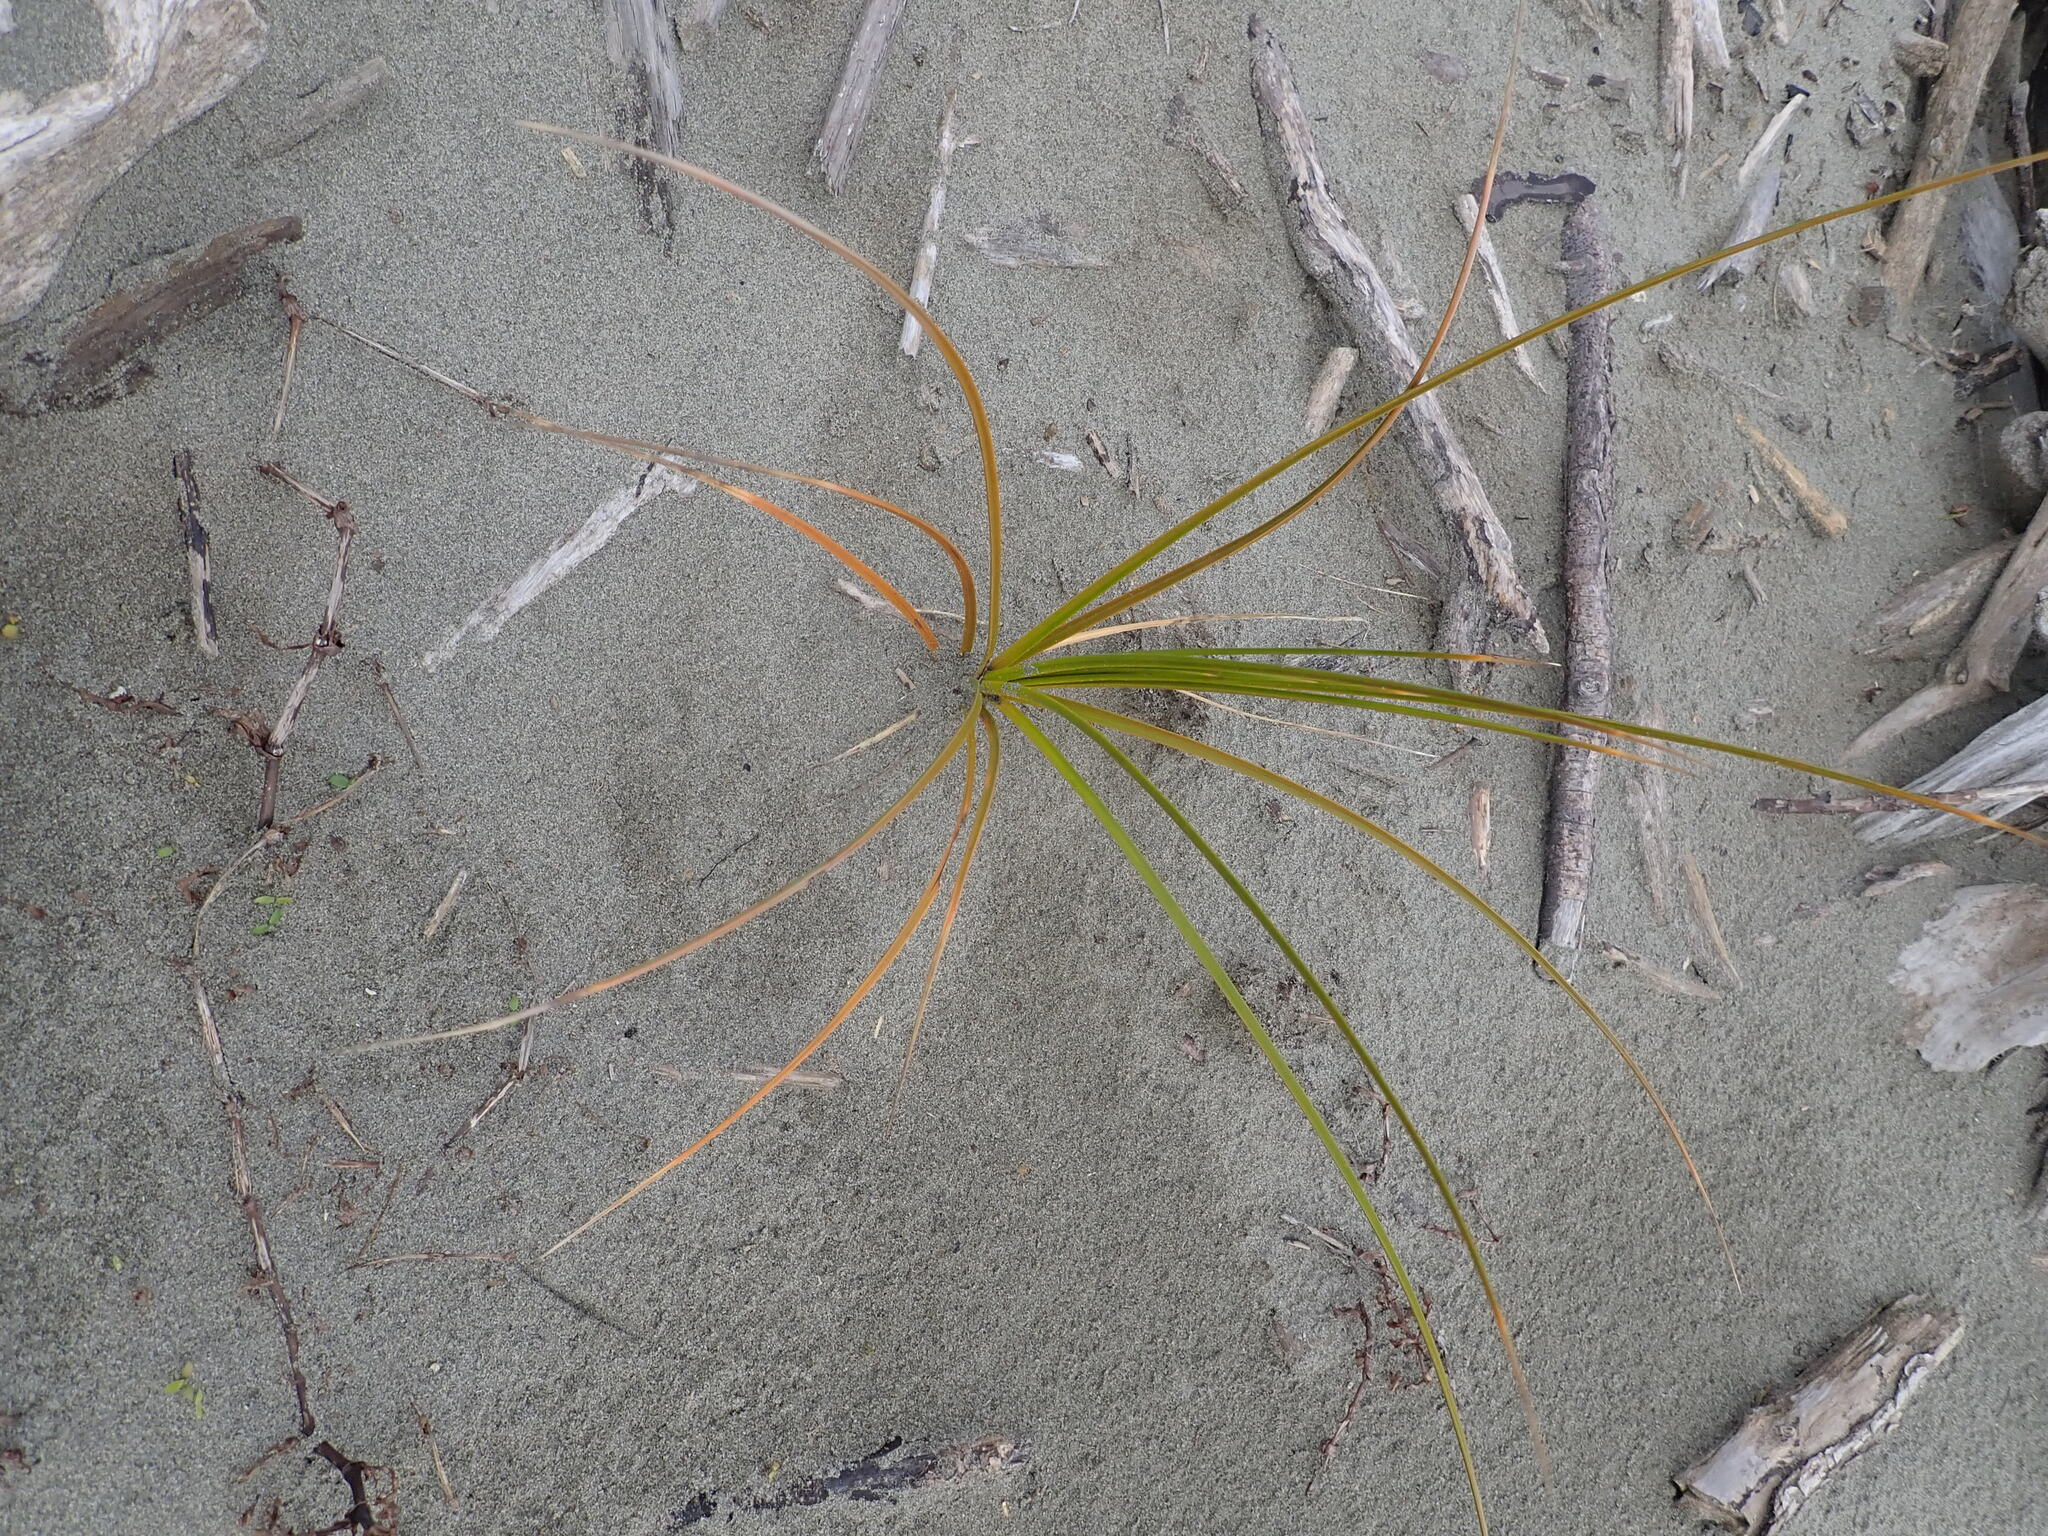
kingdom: Plantae
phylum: Tracheophyta
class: Liliopsida
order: Poales
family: Cyperaceae
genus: Ficinia
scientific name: Ficinia spiralis
